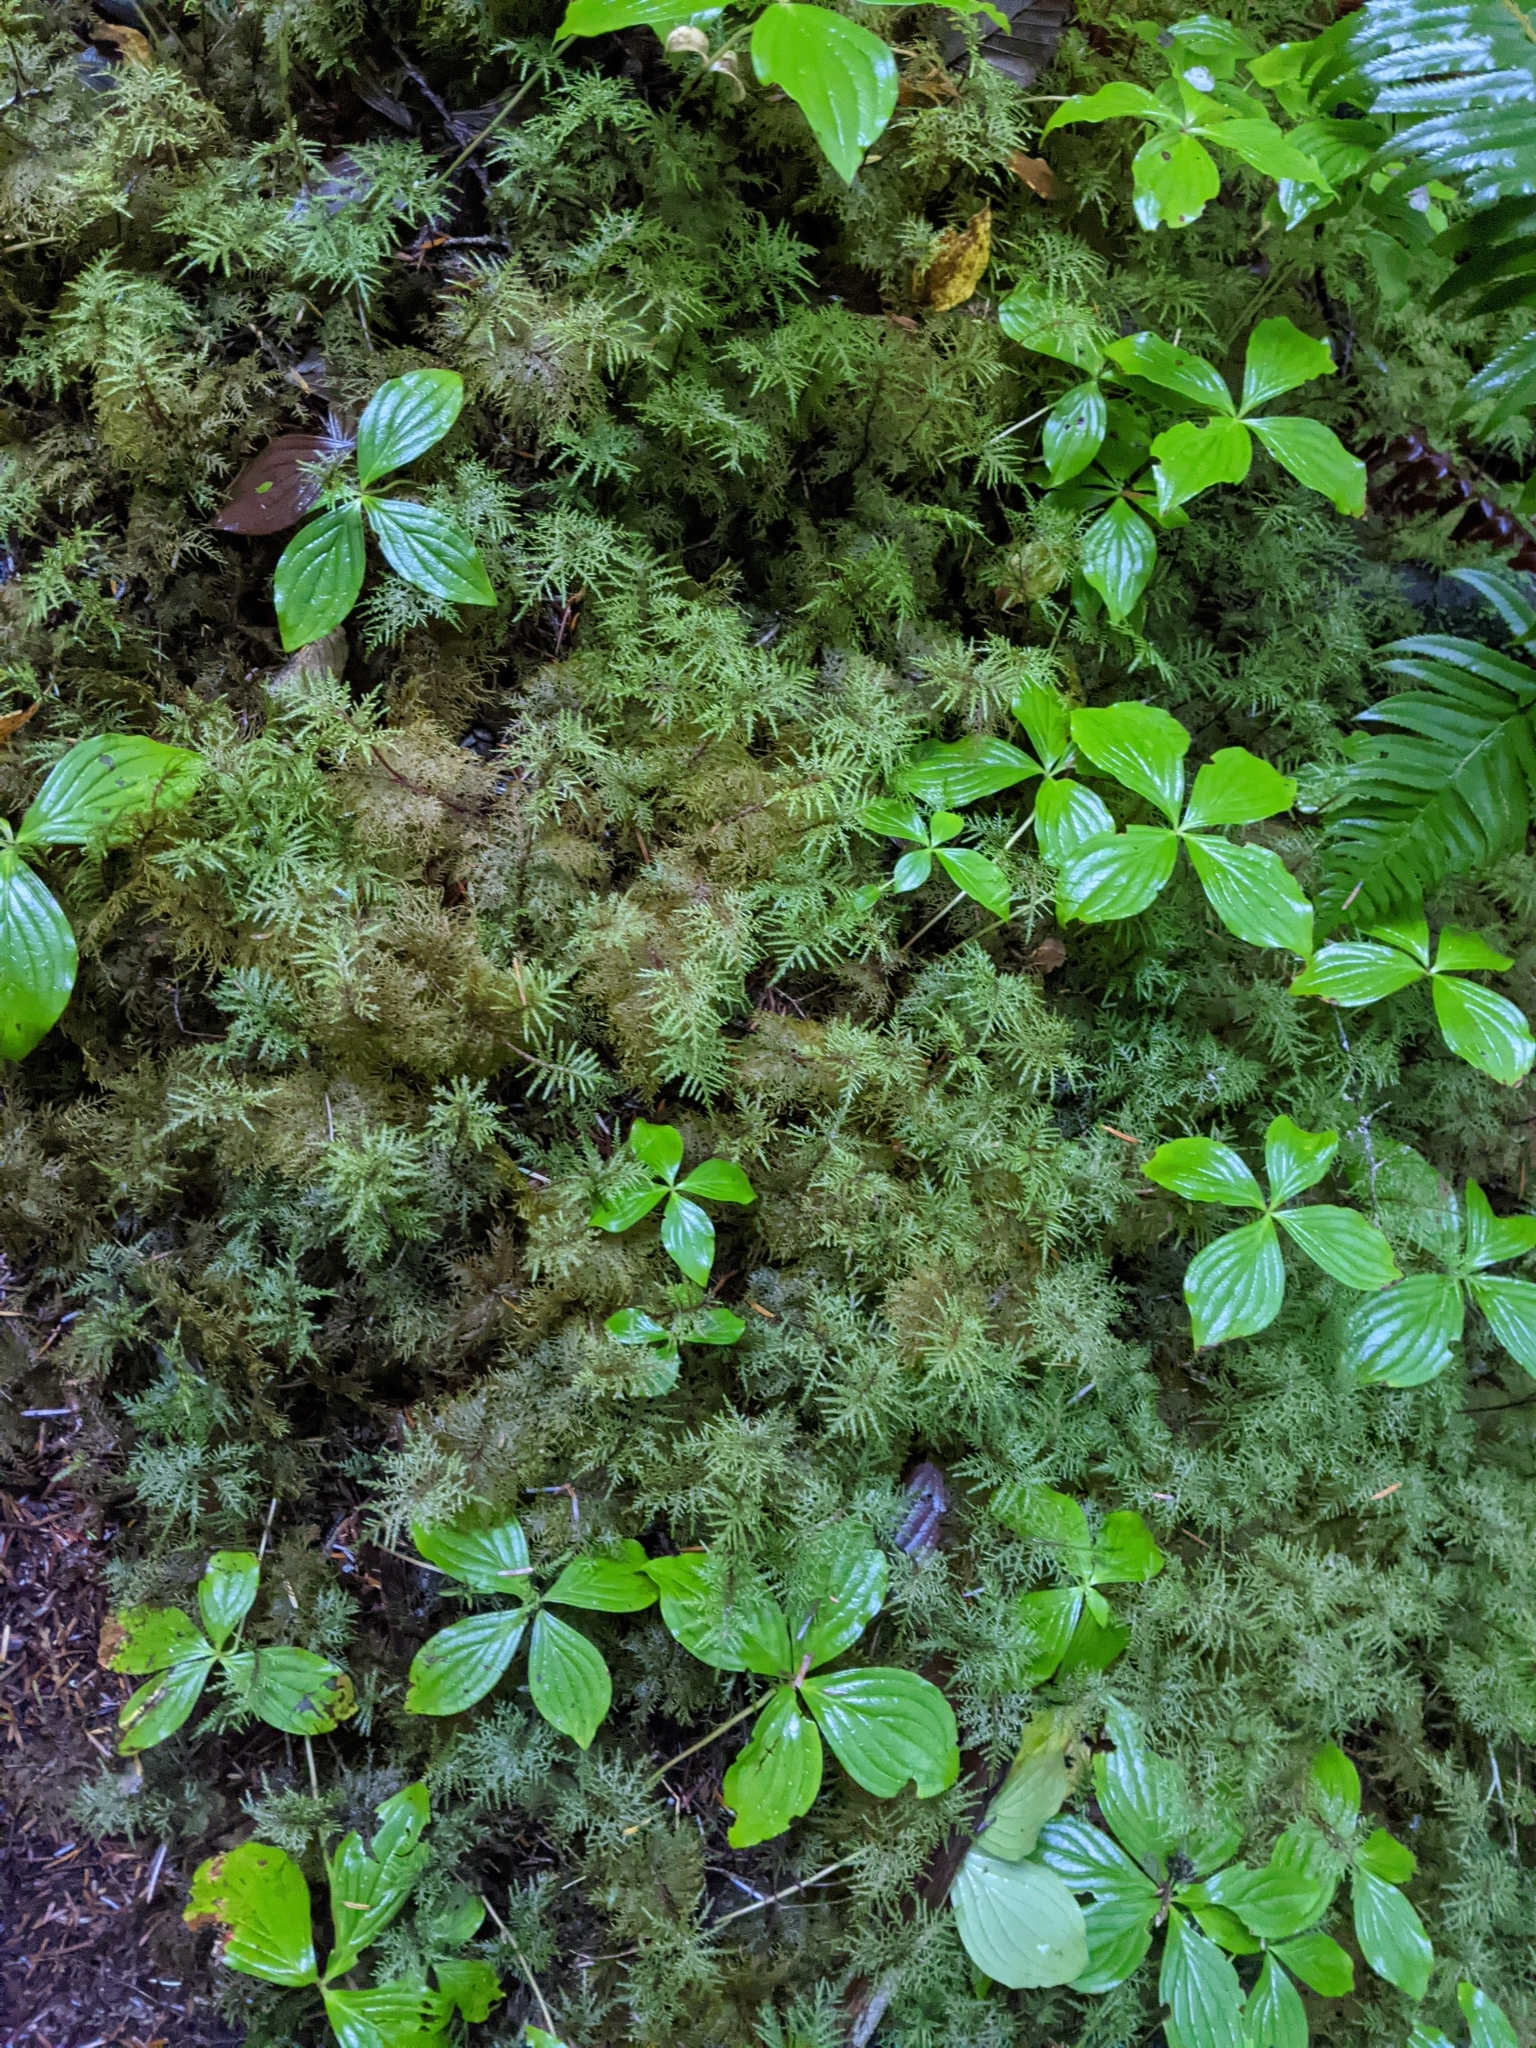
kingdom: Plantae
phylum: Tracheophyta
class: Magnoliopsida
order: Cornales
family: Cornaceae
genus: Cornus
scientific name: Cornus unalaschkensis
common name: Alaska bunchberry
